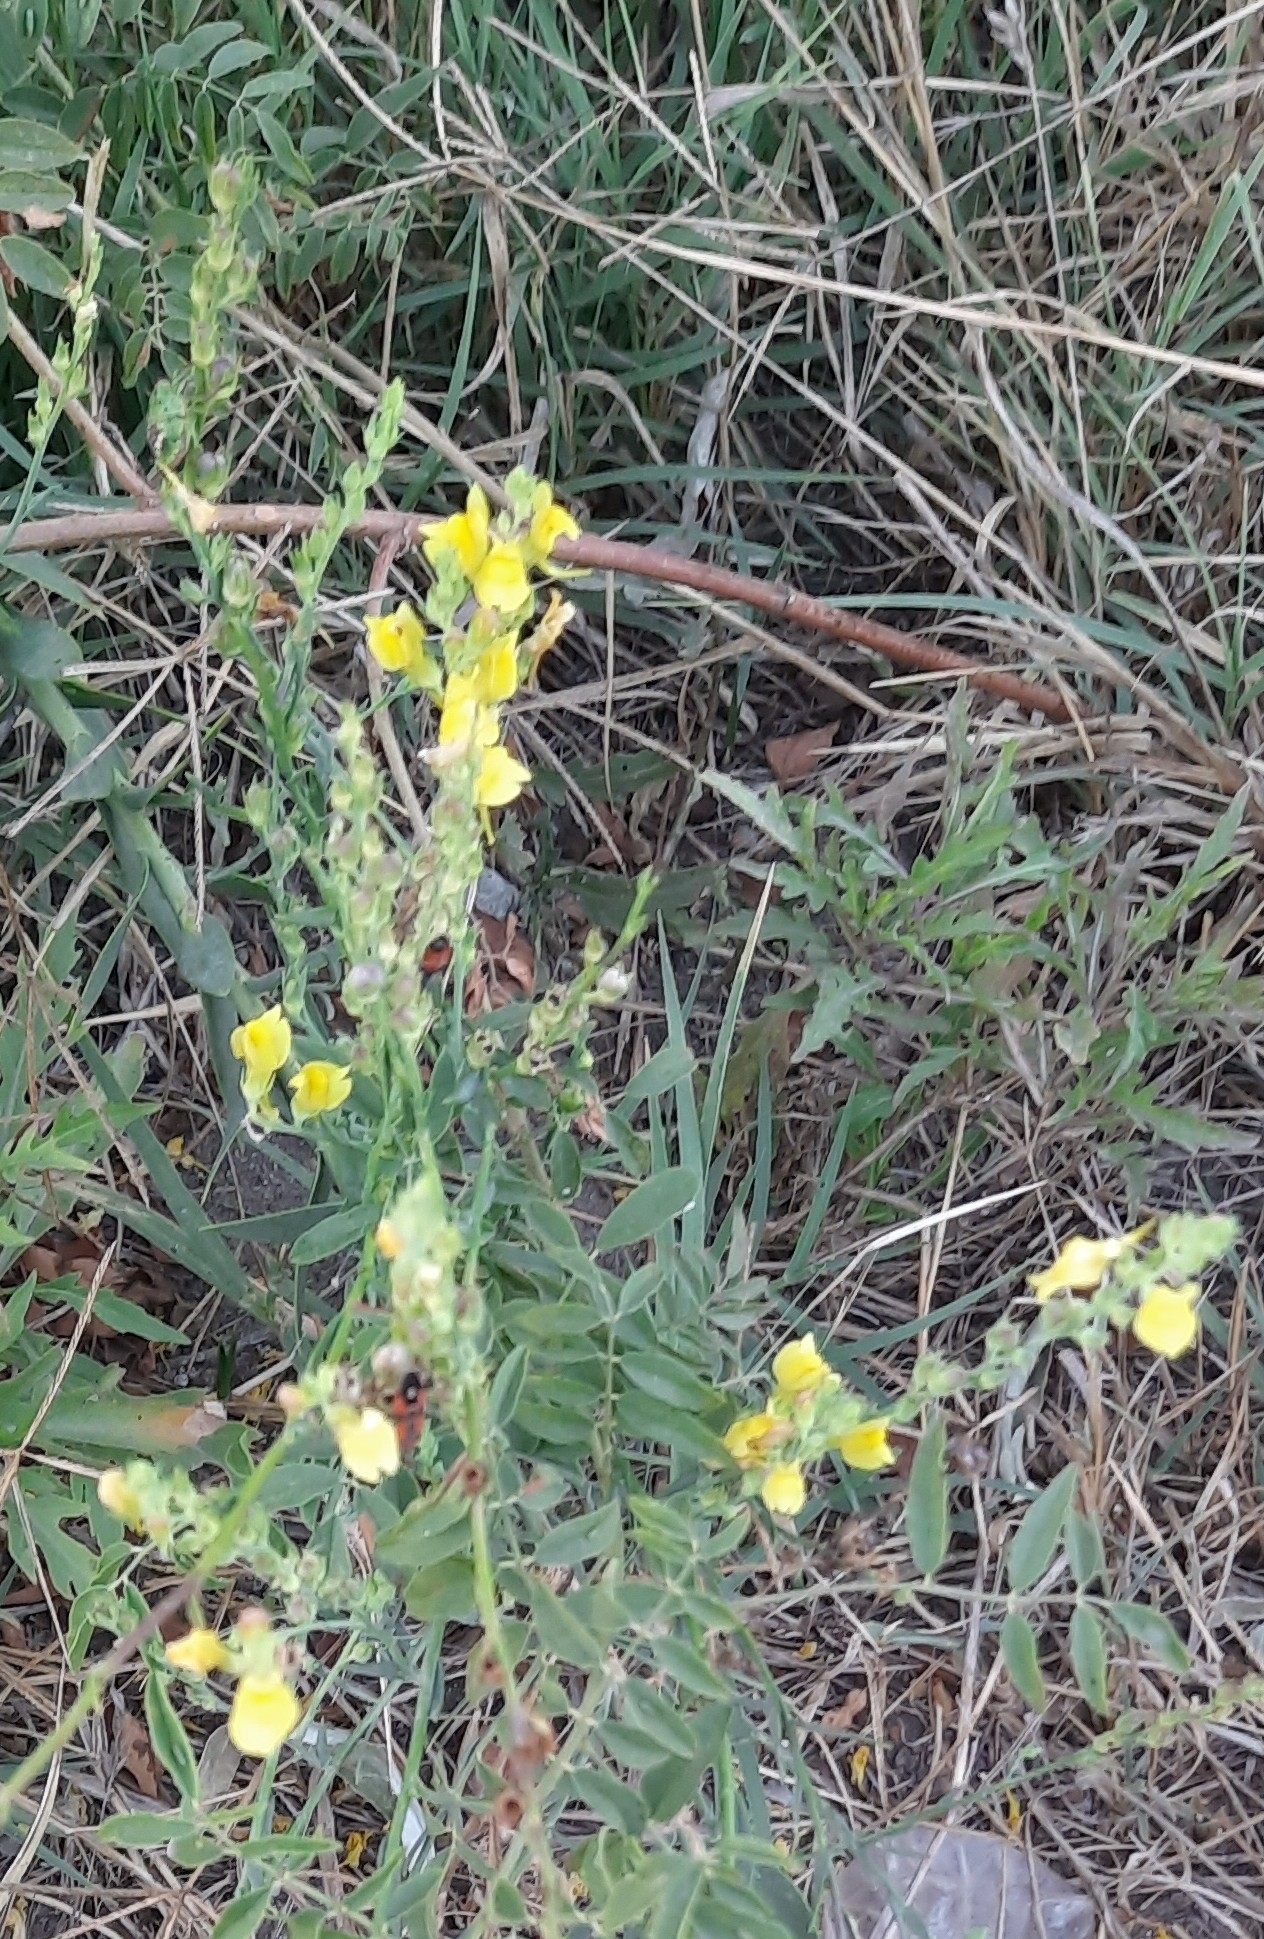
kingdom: Plantae
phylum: Tracheophyta
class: Magnoliopsida
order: Lamiales
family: Plantaginaceae
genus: Linaria
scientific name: Linaria genistifolia
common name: Broomleaf toadflax
